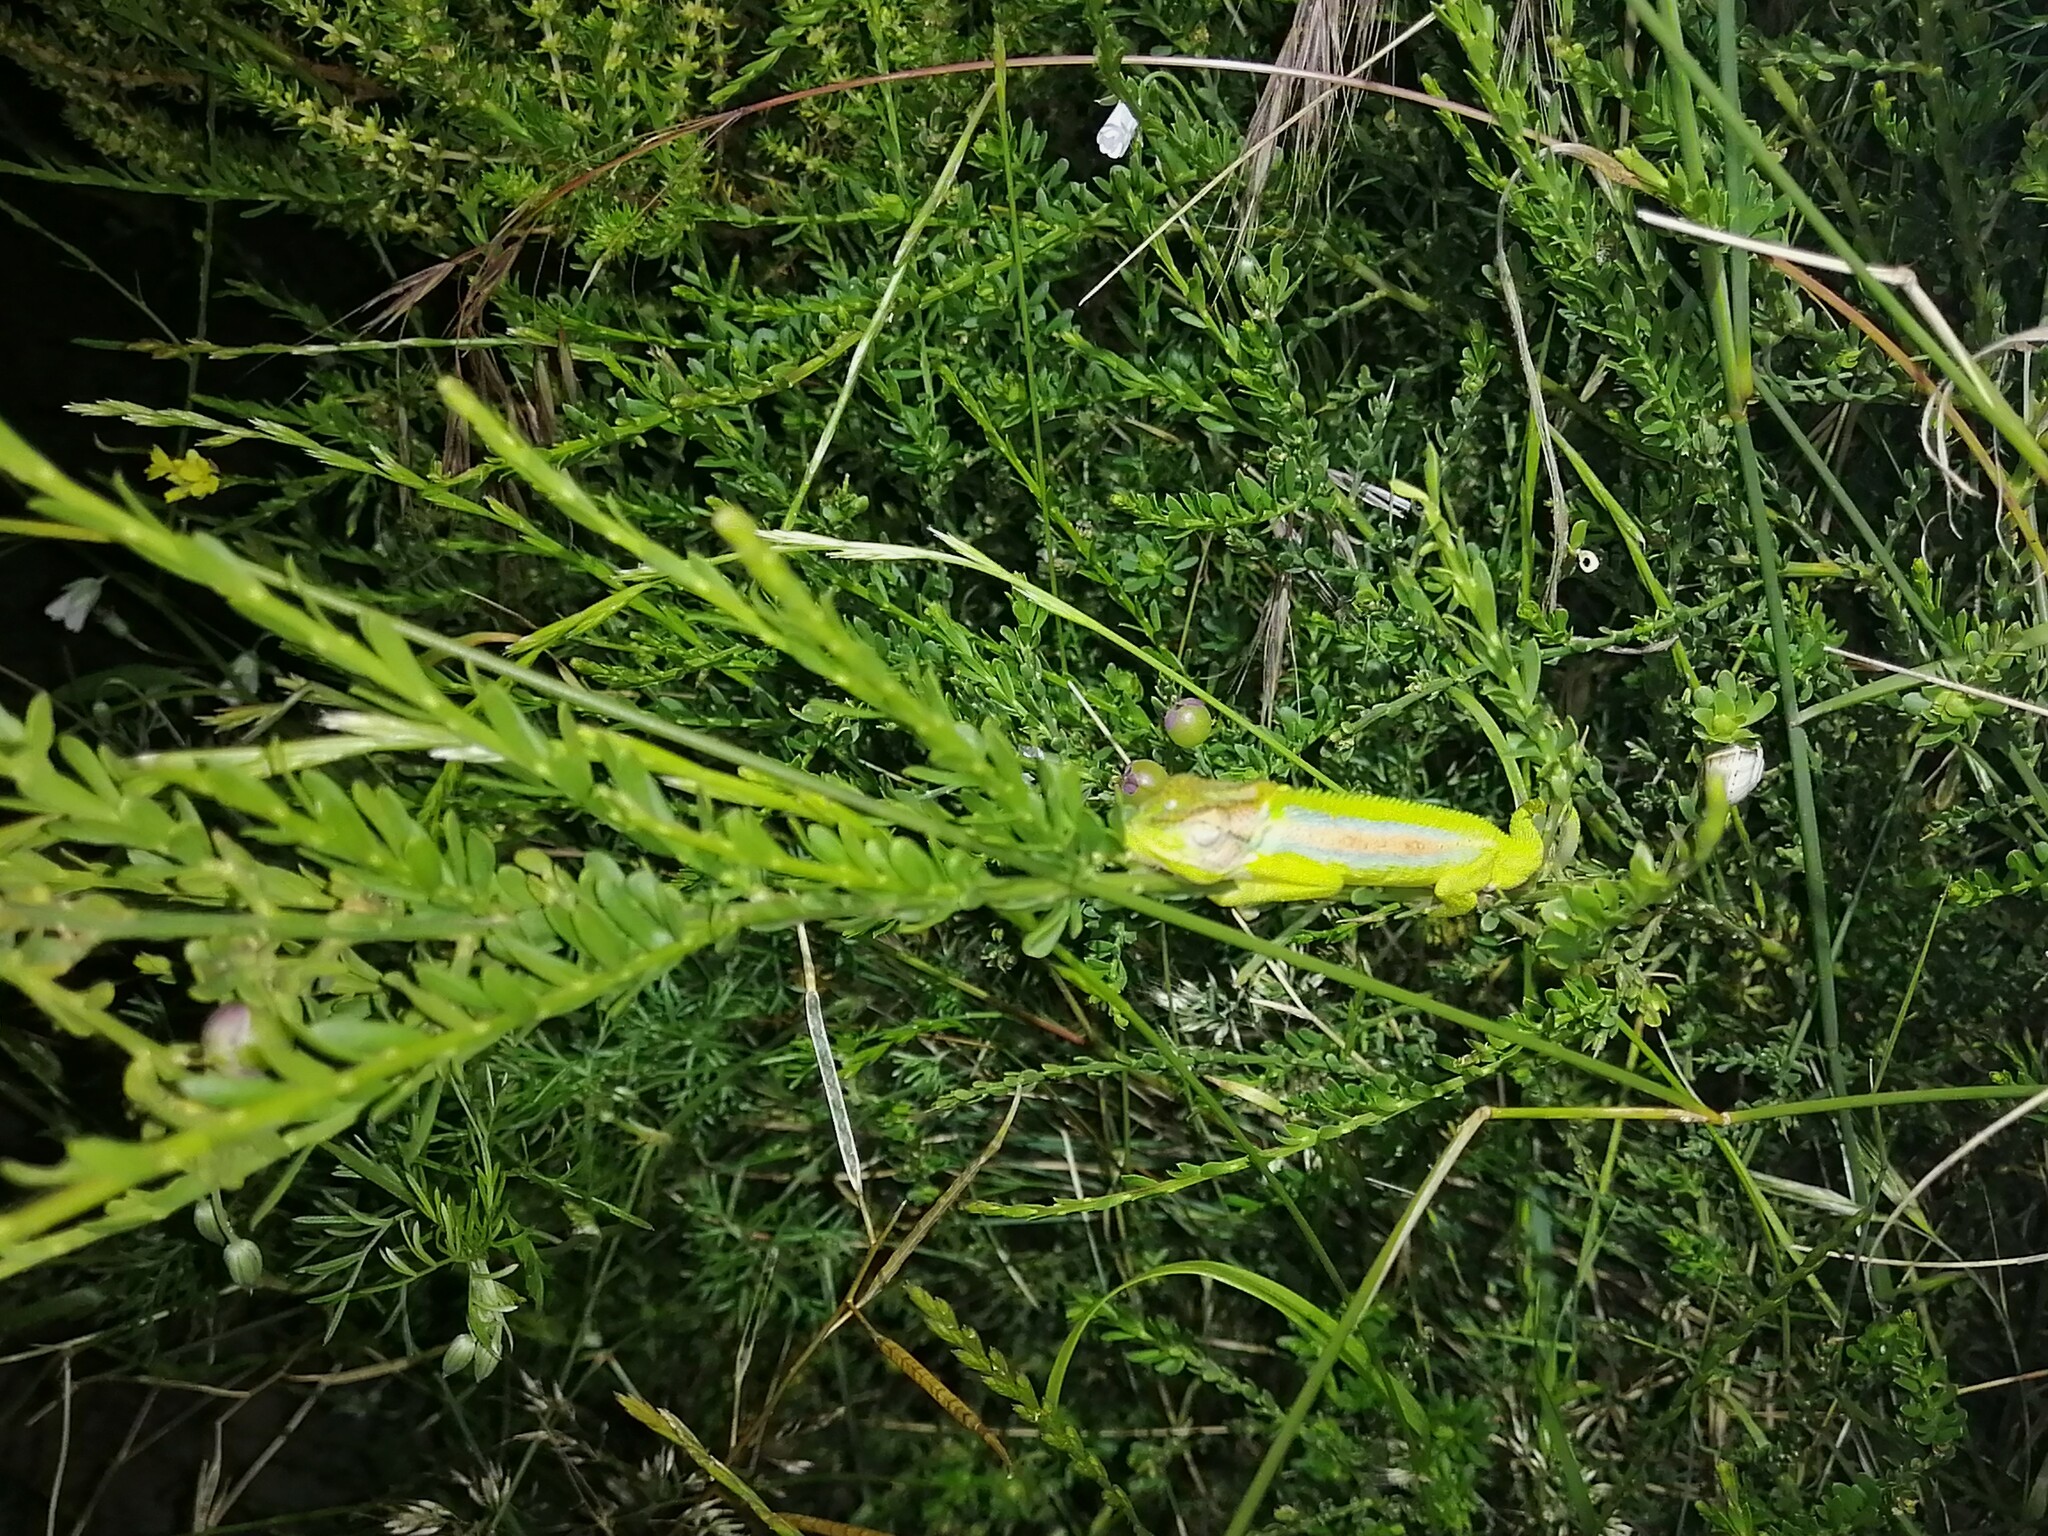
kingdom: Animalia
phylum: Chordata
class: Squamata
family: Chamaeleonidae
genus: Bradypodion
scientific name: Bradypodion pumilum
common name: Cape dwarf chameleon
